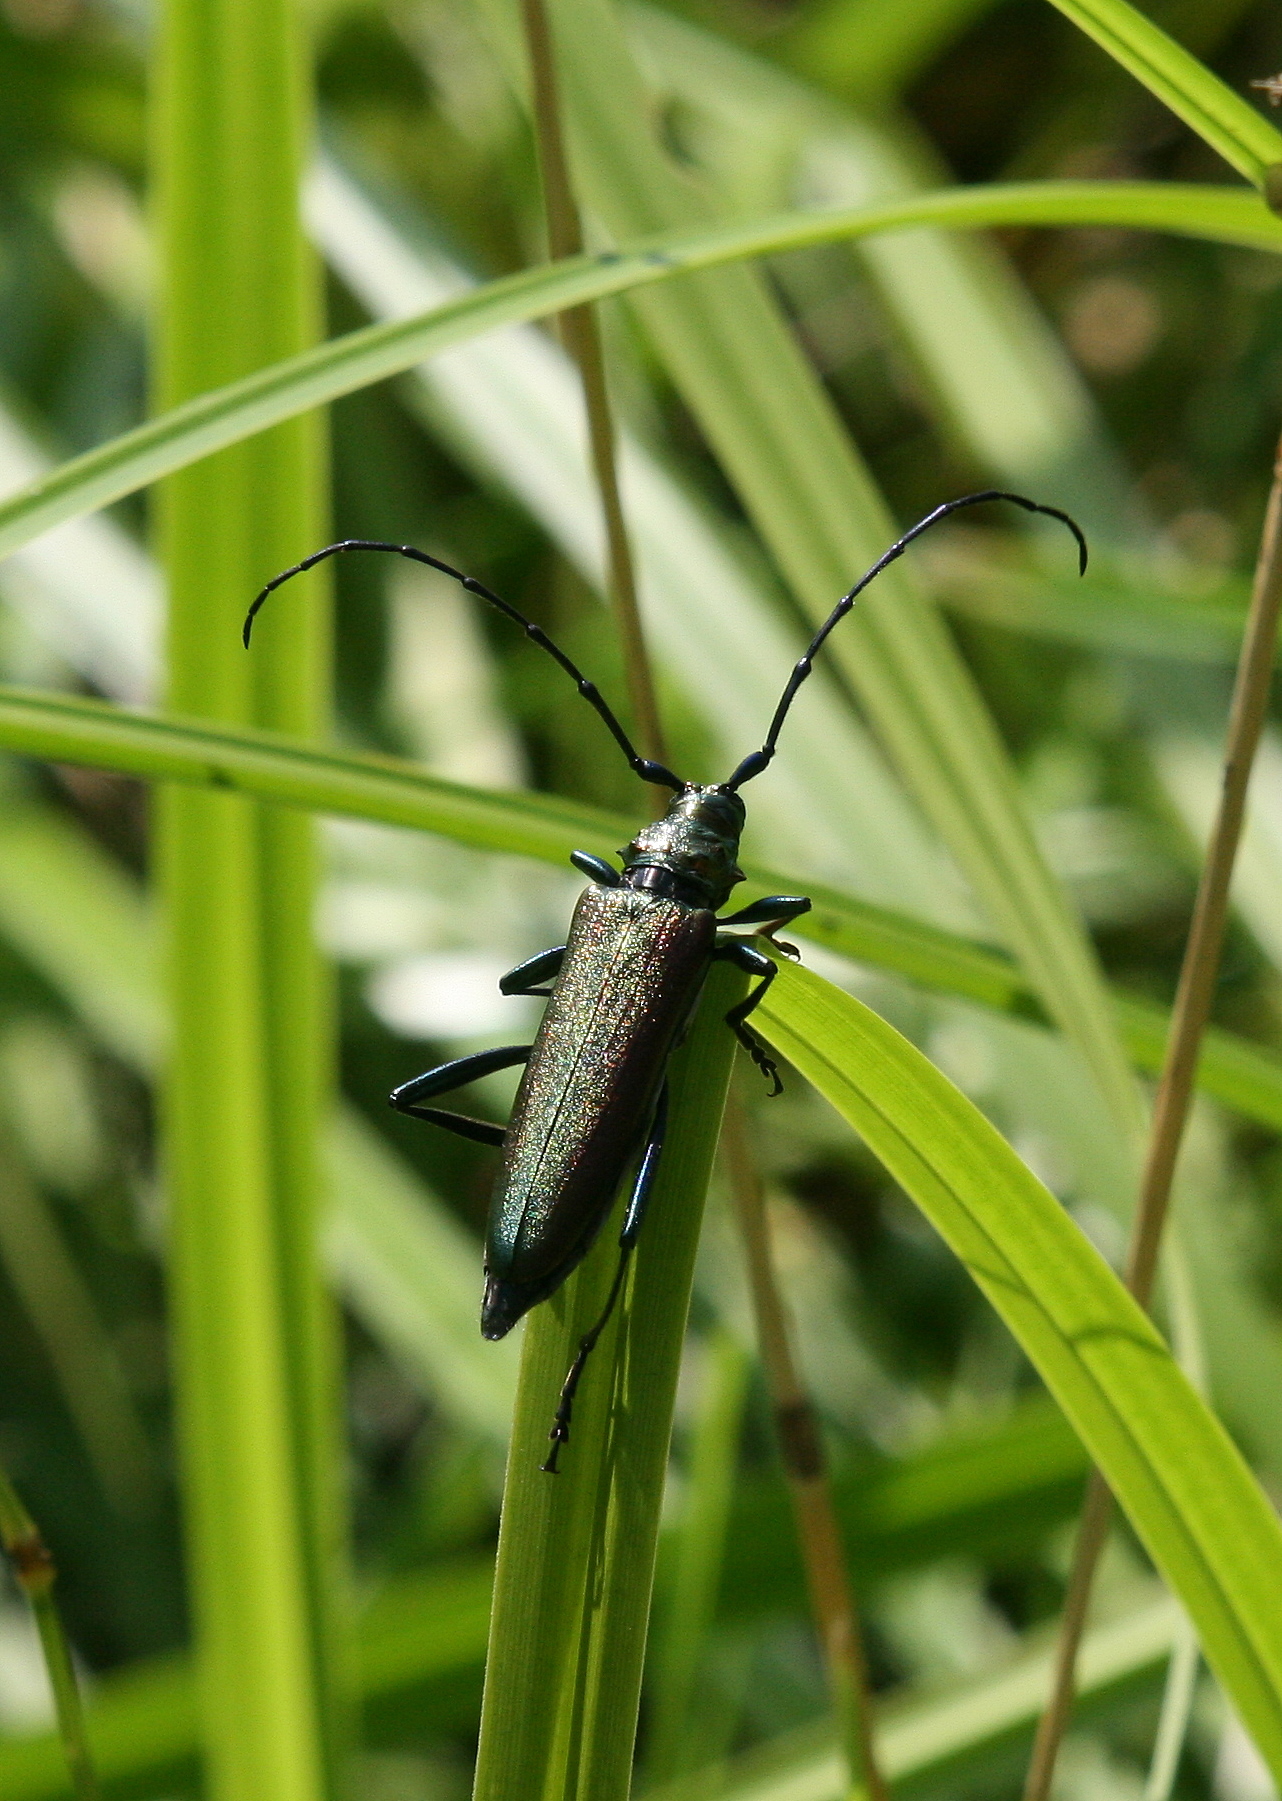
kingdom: Animalia
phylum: Arthropoda
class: Insecta
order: Coleoptera
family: Cerambycidae
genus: Aromia
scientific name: Aromia moschata
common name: Musk beetle
